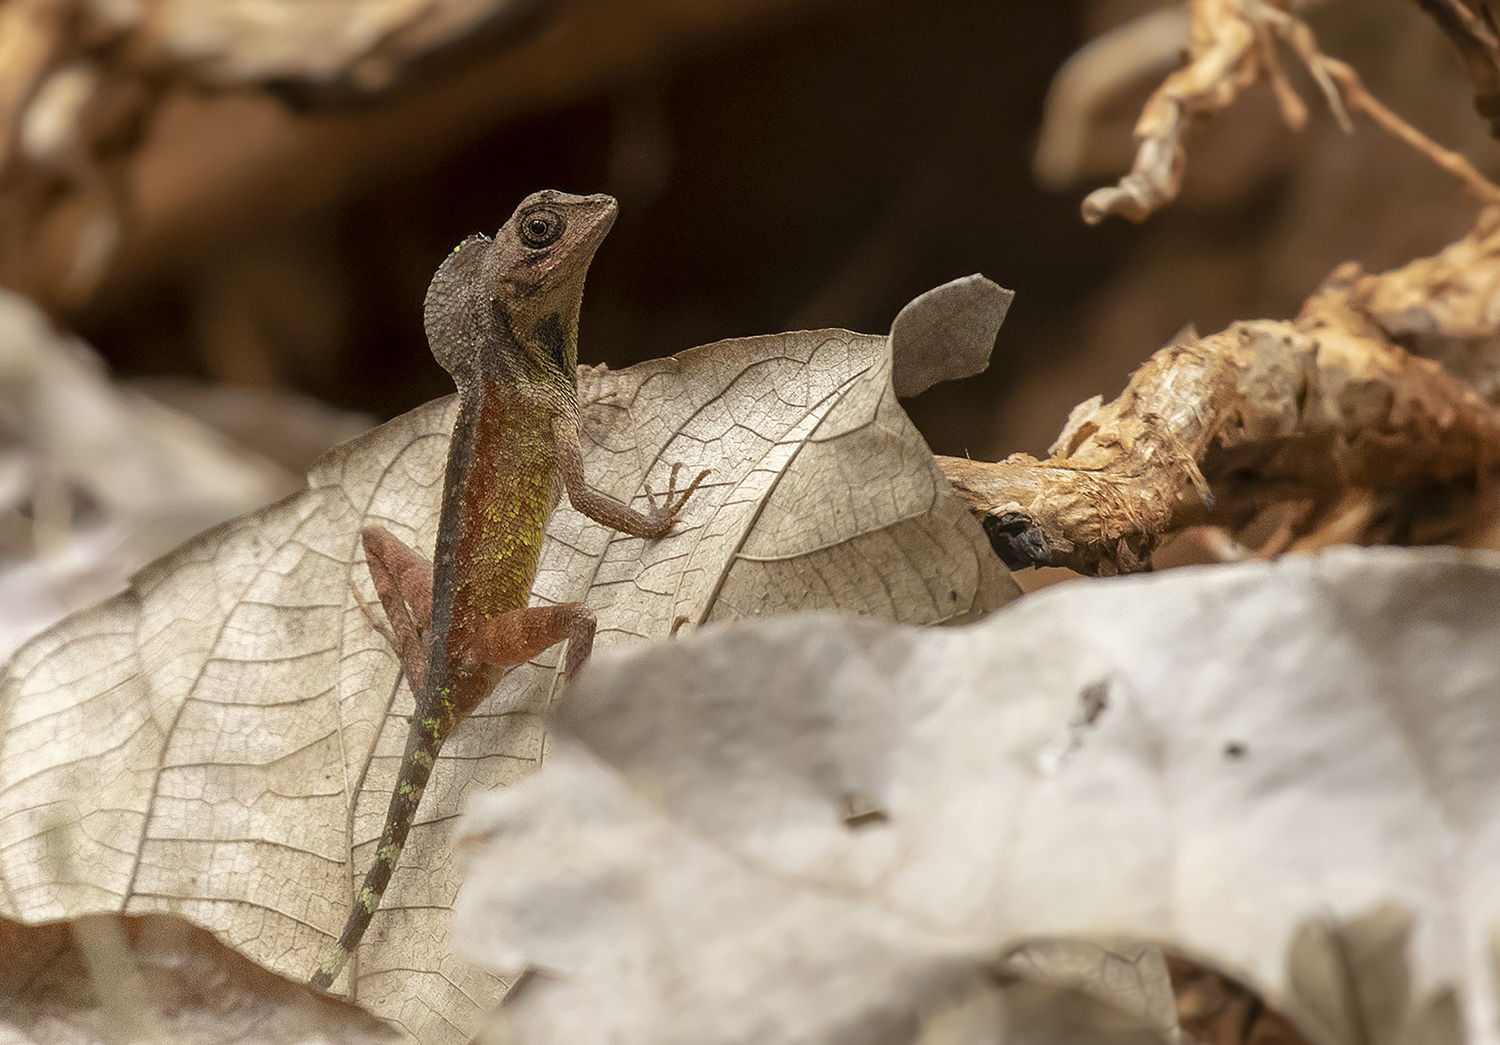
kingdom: Animalia
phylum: Chordata
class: Squamata
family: Agamidae
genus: Otocryptis
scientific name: Otocryptis nigristigma
